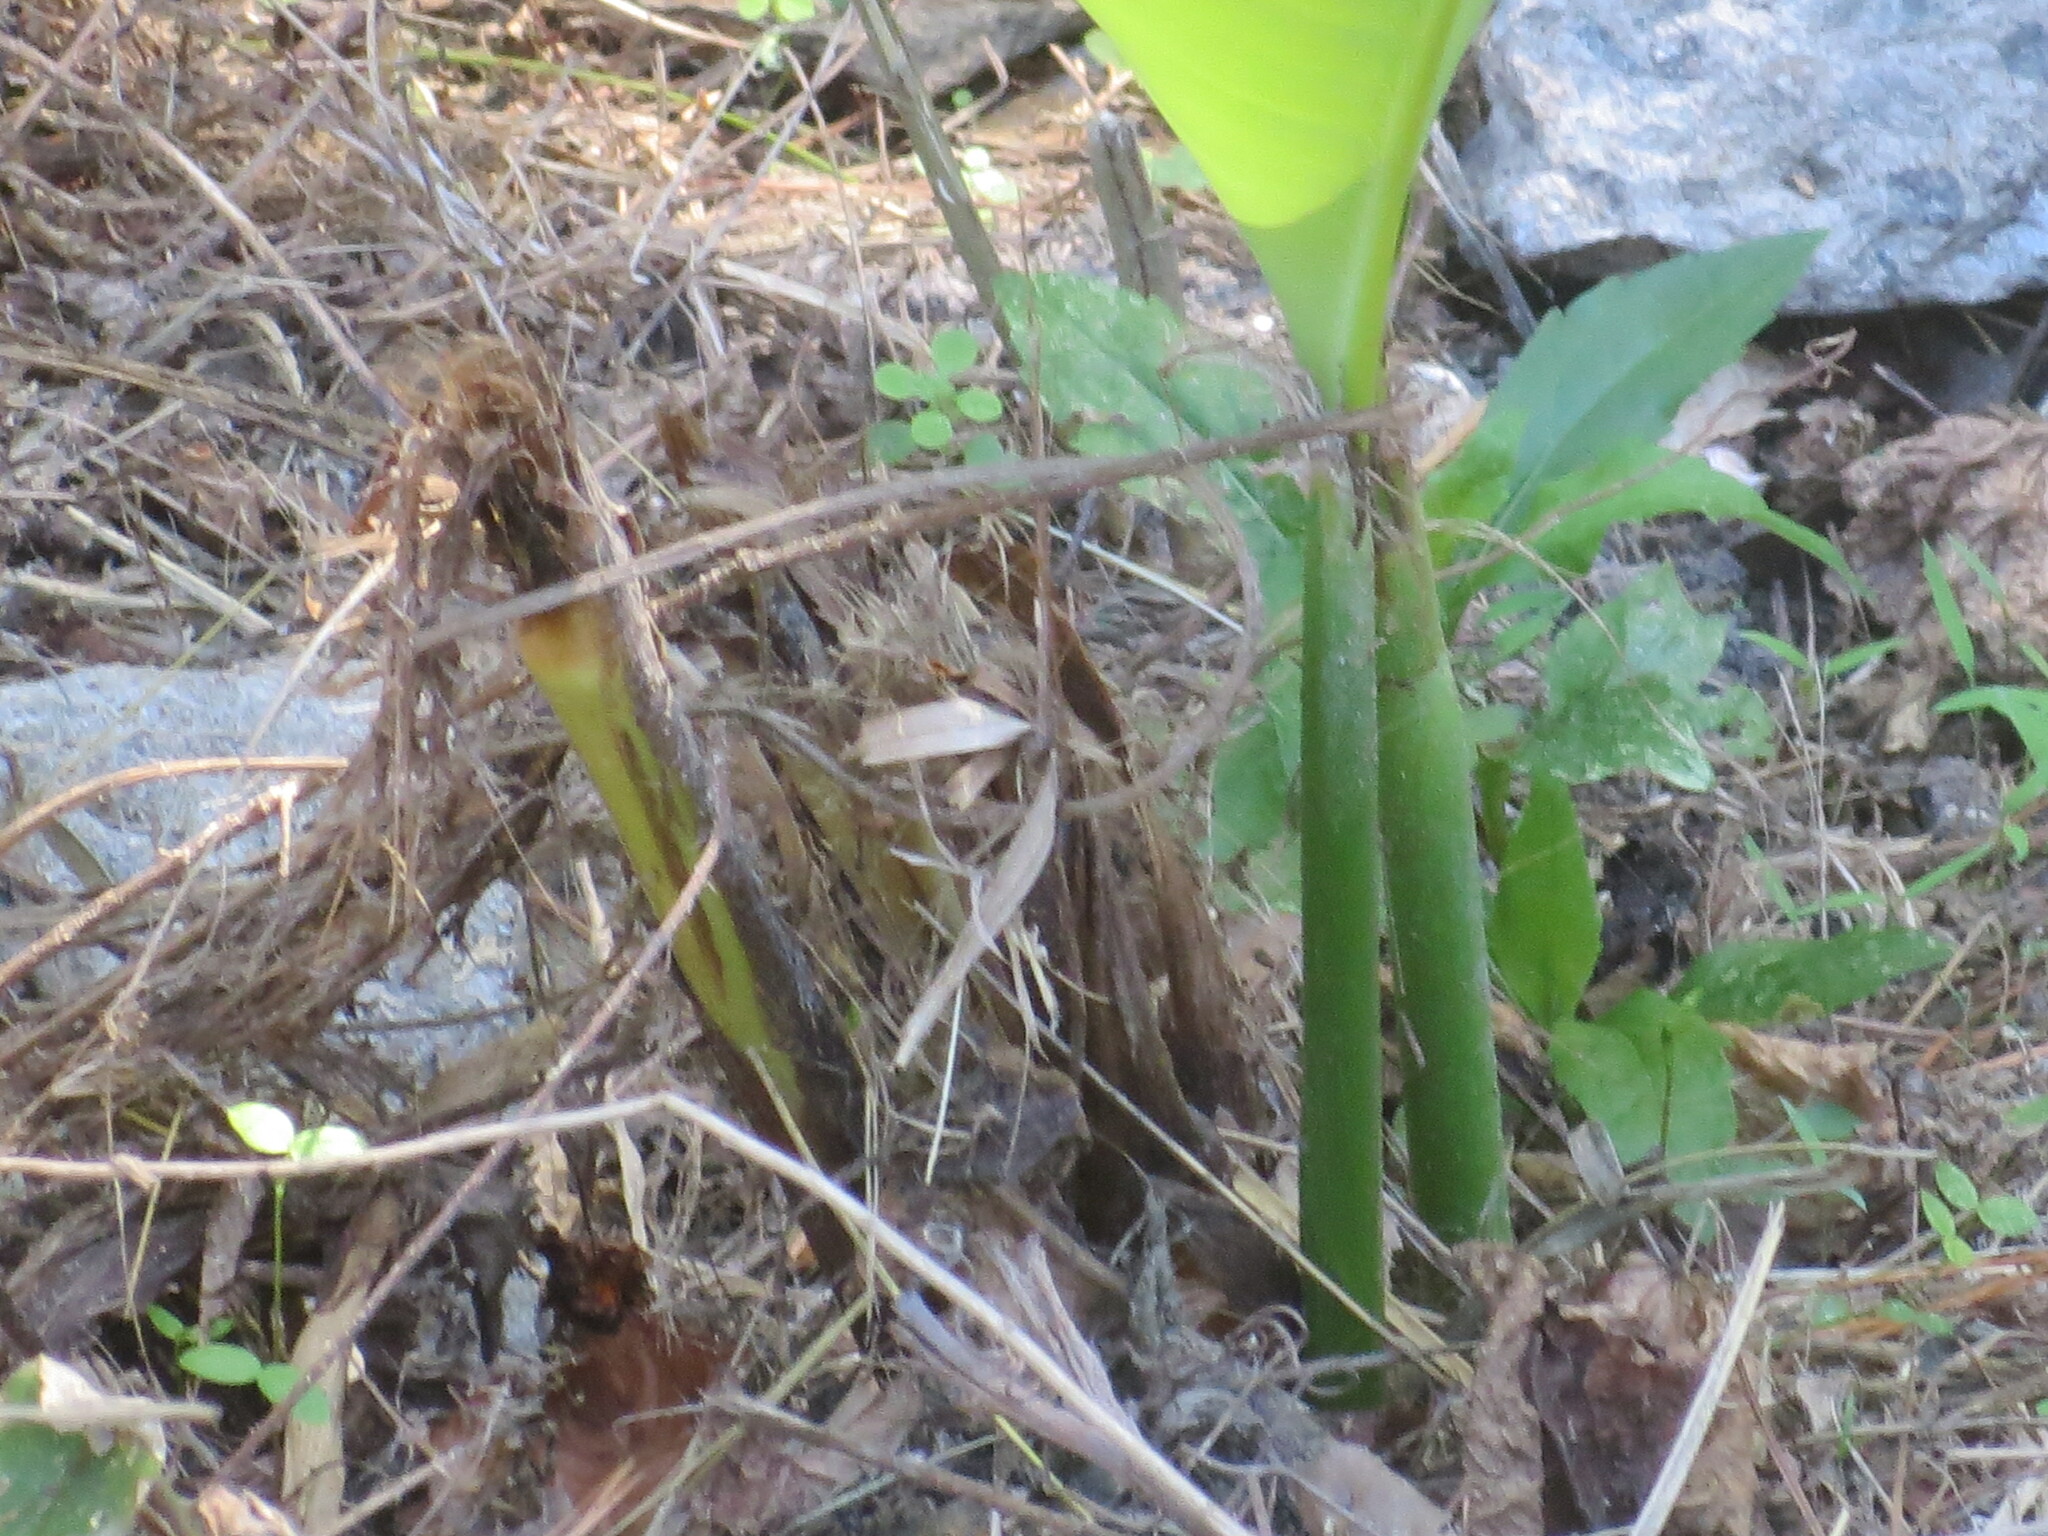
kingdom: Plantae
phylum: Tracheophyta
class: Liliopsida
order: Zingiberales
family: Cannaceae
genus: Canna
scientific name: Canna indica
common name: Indian shot
